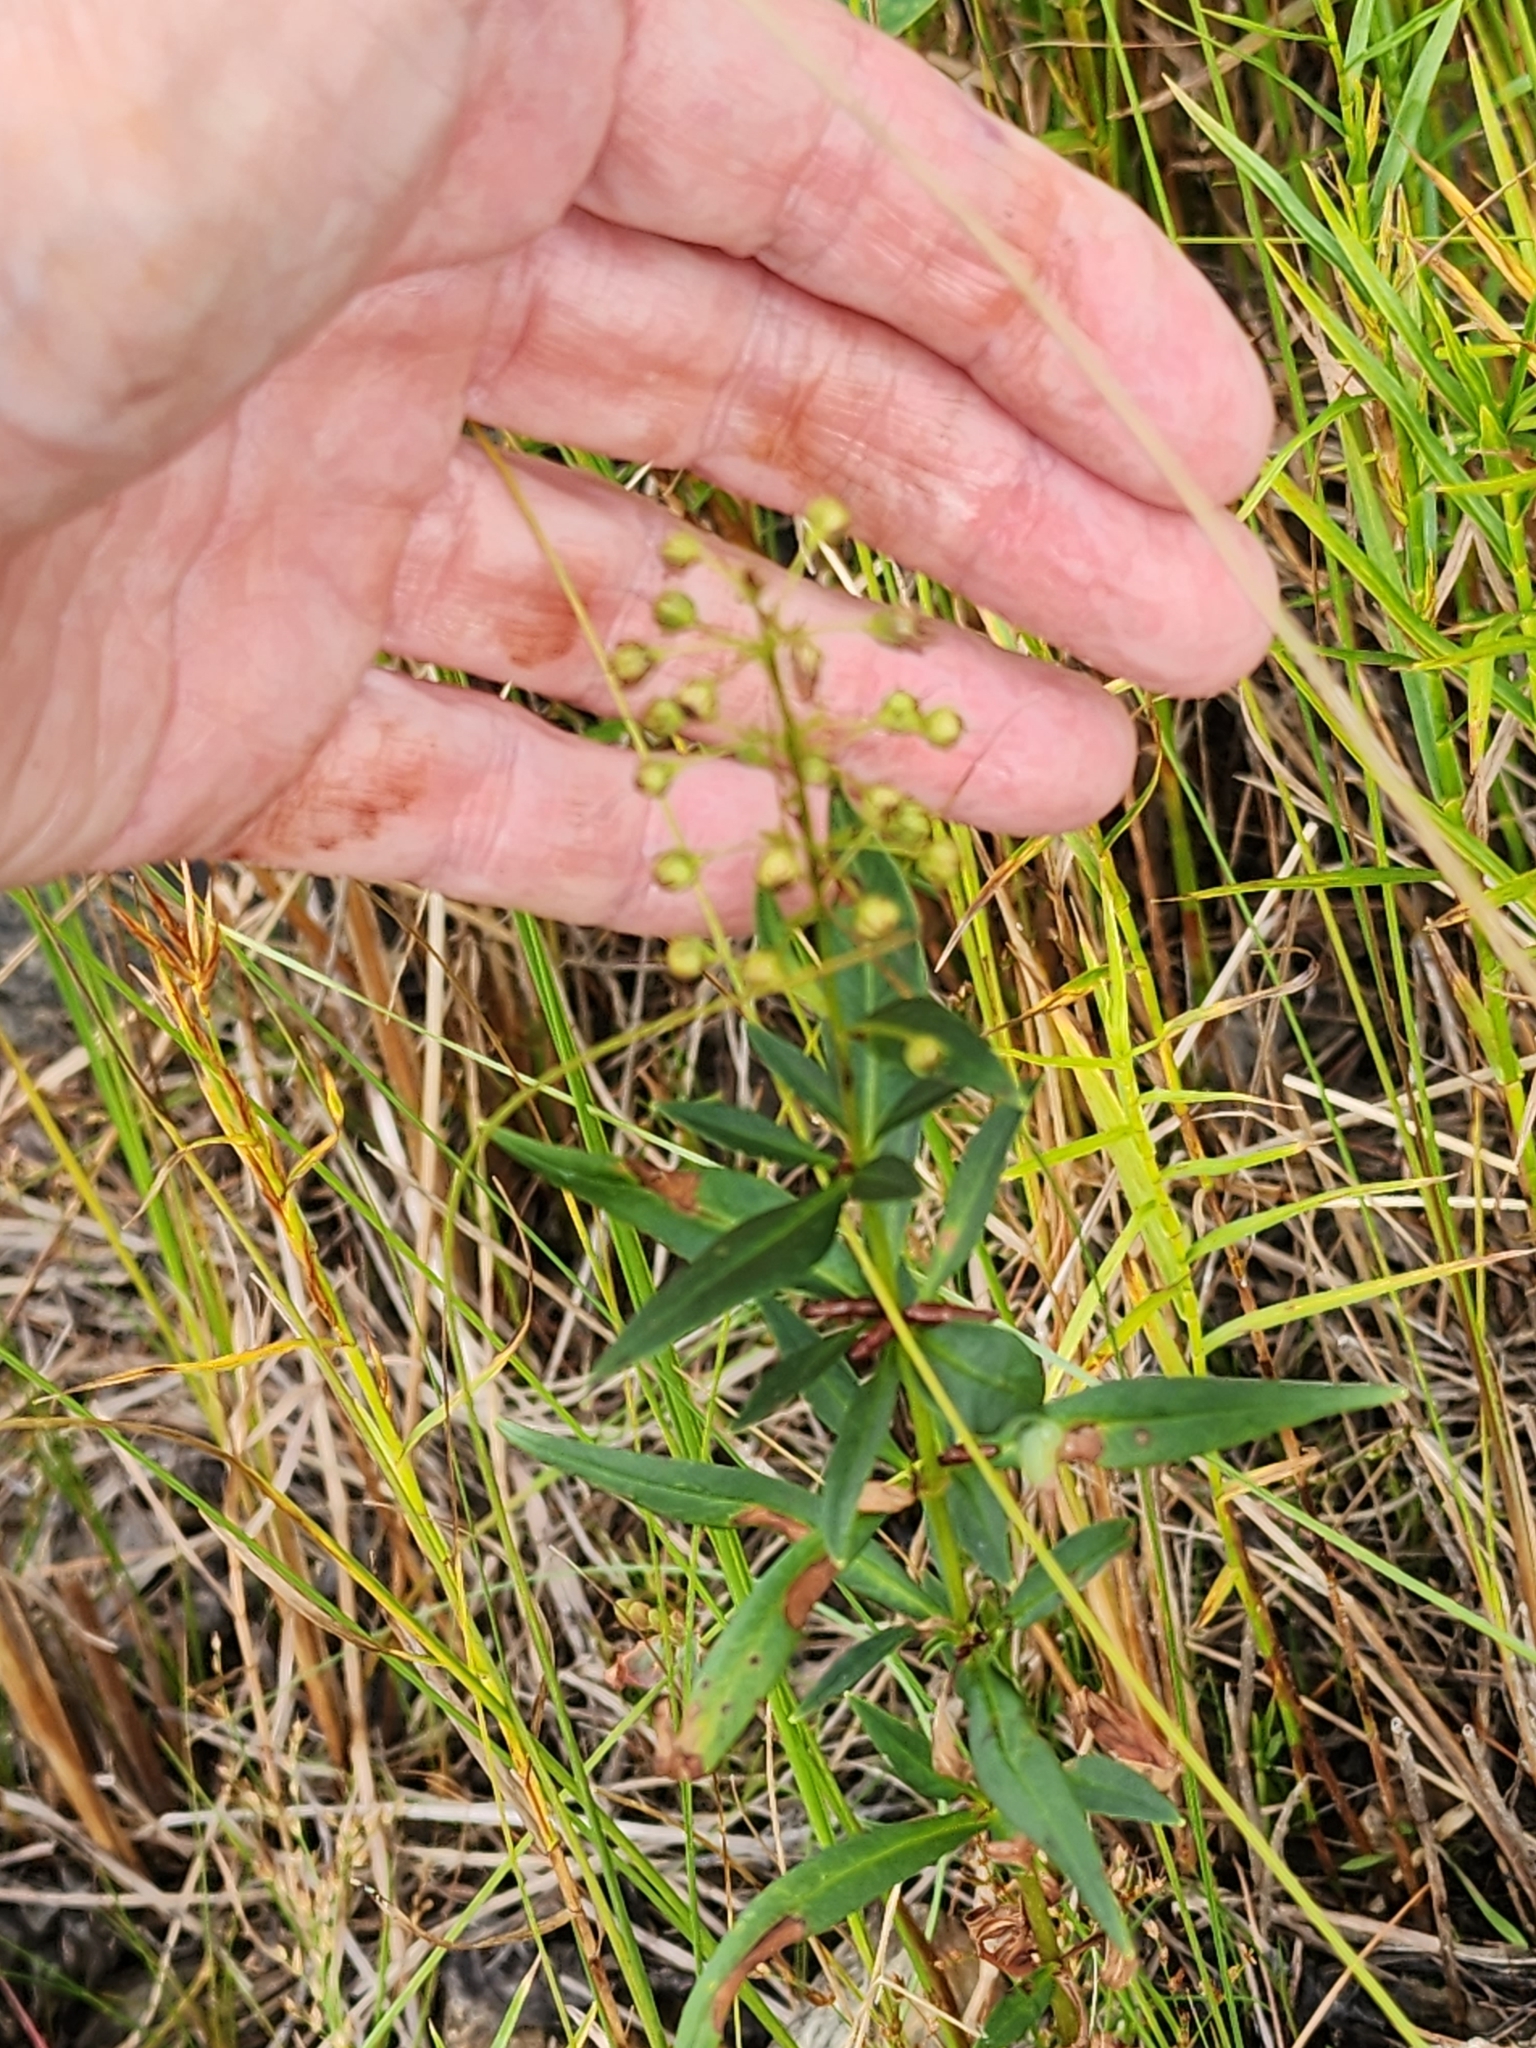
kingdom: Plantae
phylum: Tracheophyta
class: Magnoliopsida
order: Ericales
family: Primulaceae
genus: Lysimachia
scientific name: Lysimachia terrestris
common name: Lake loosestrife
